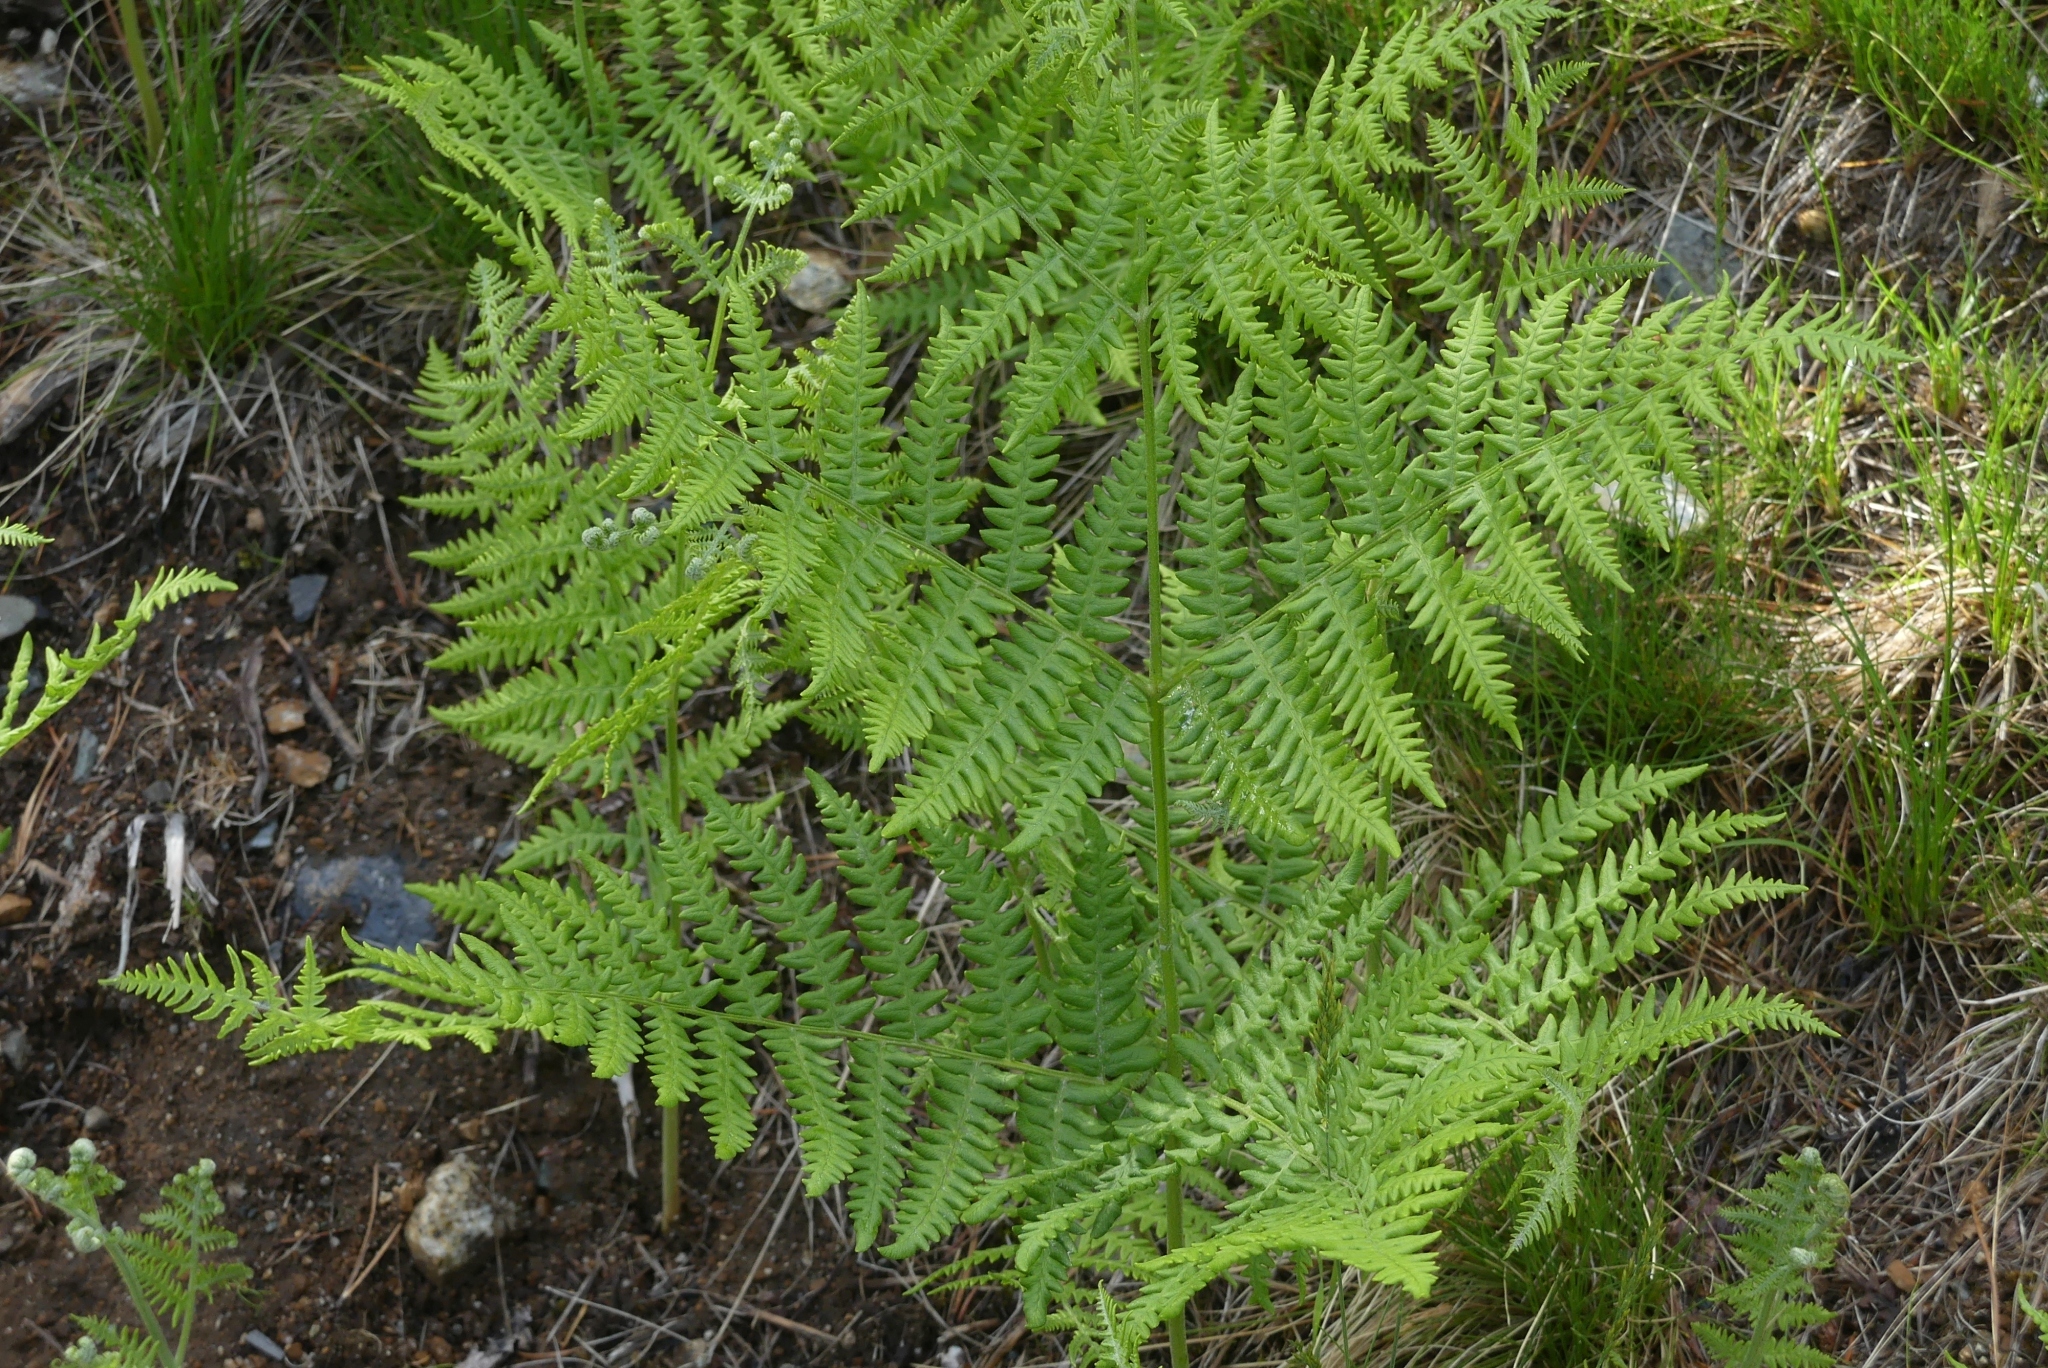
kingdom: Plantae
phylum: Tracheophyta
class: Polypodiopsida
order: Polypodiales
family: Dennstaedtiaceae
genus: Pteridium
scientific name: Pteridium aquilinum
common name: Bracken
